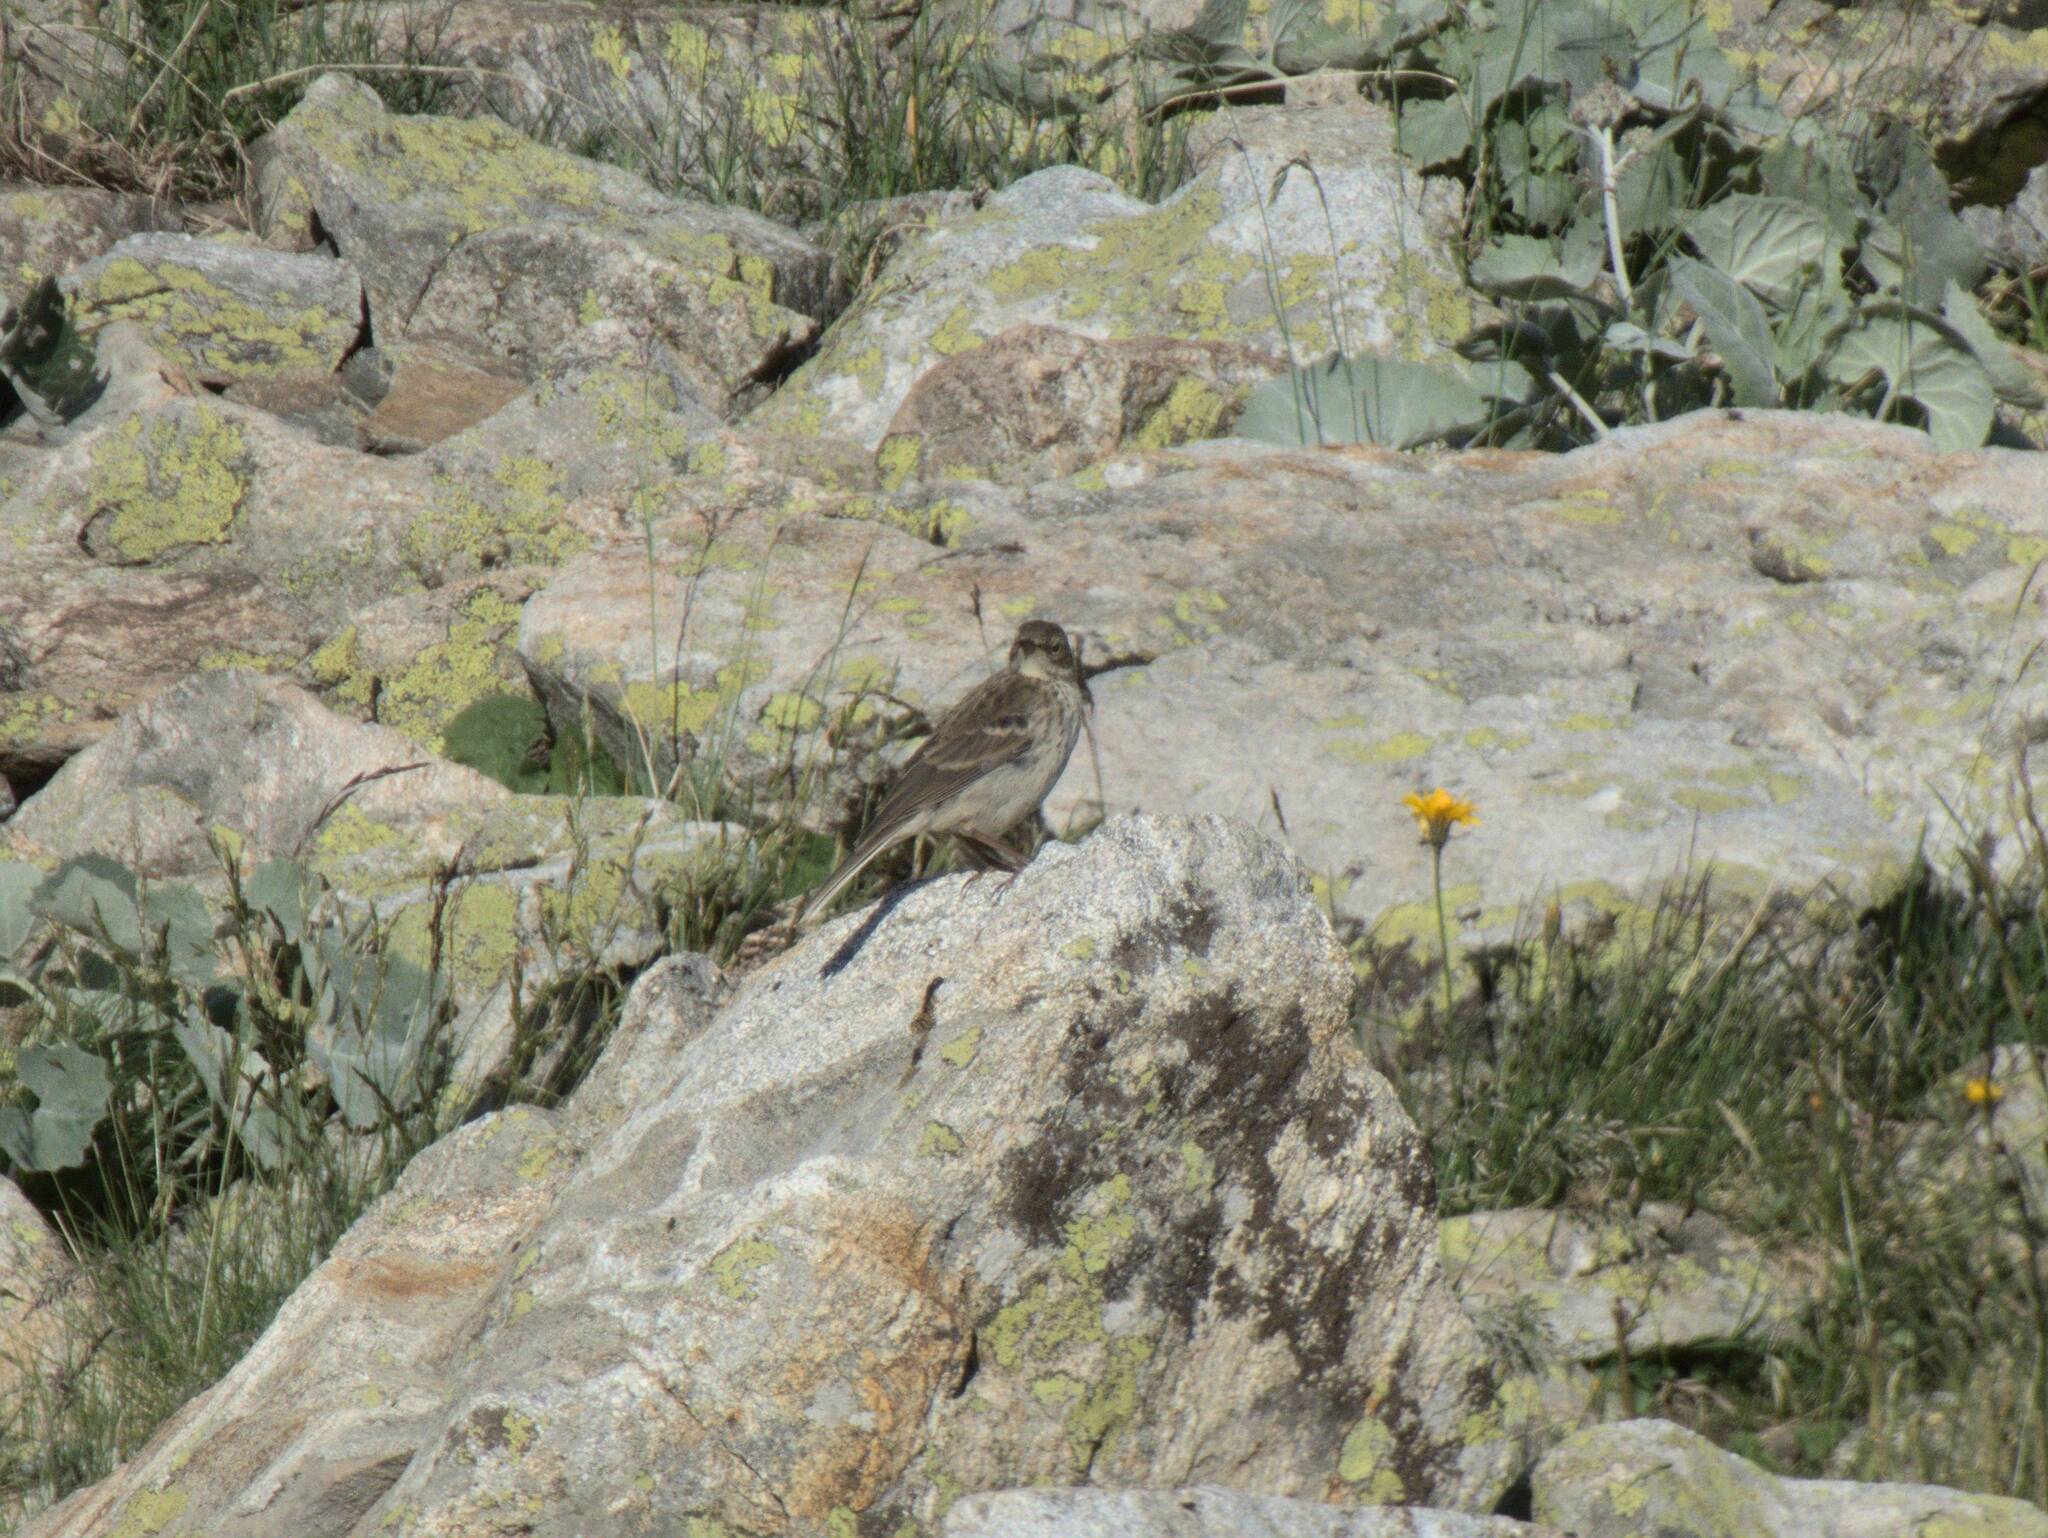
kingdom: Animalia
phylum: Chordata
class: Aves
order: Passeriformes
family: Motacillidae
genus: Anthus
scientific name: Anthus spinoletta
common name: Water pipit
